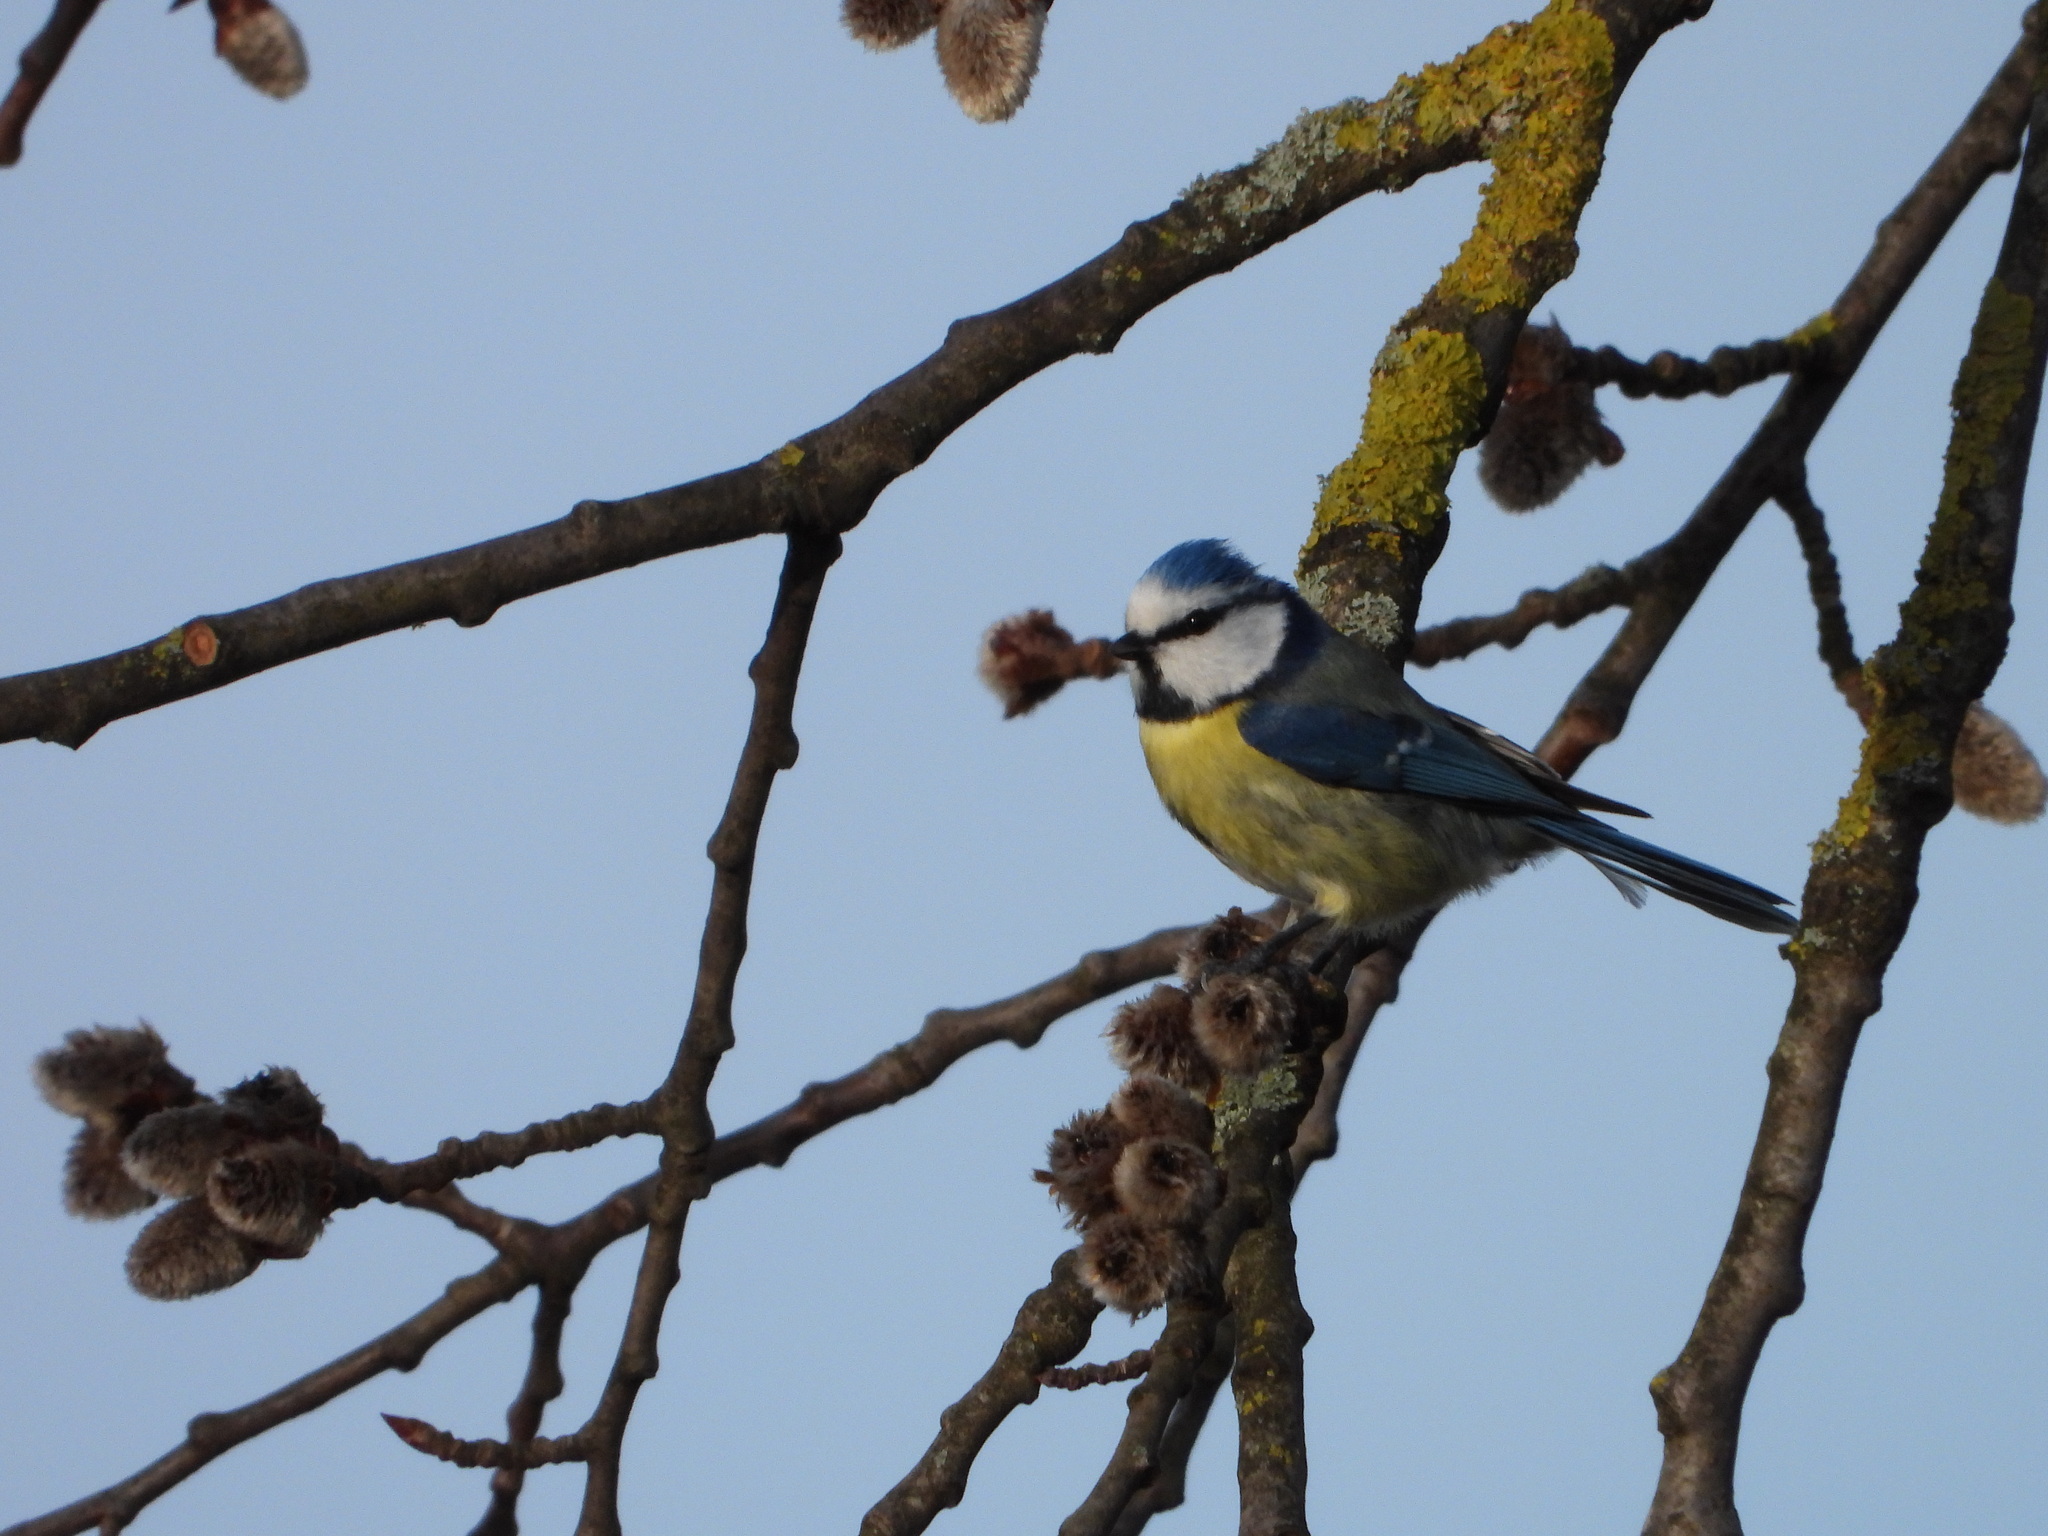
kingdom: Animalia
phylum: Chordata
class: Aves
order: Passeriformes
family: Paridae
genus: Cyanistes
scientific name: Cyanistes caeruleus
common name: Eurasian blue tit
